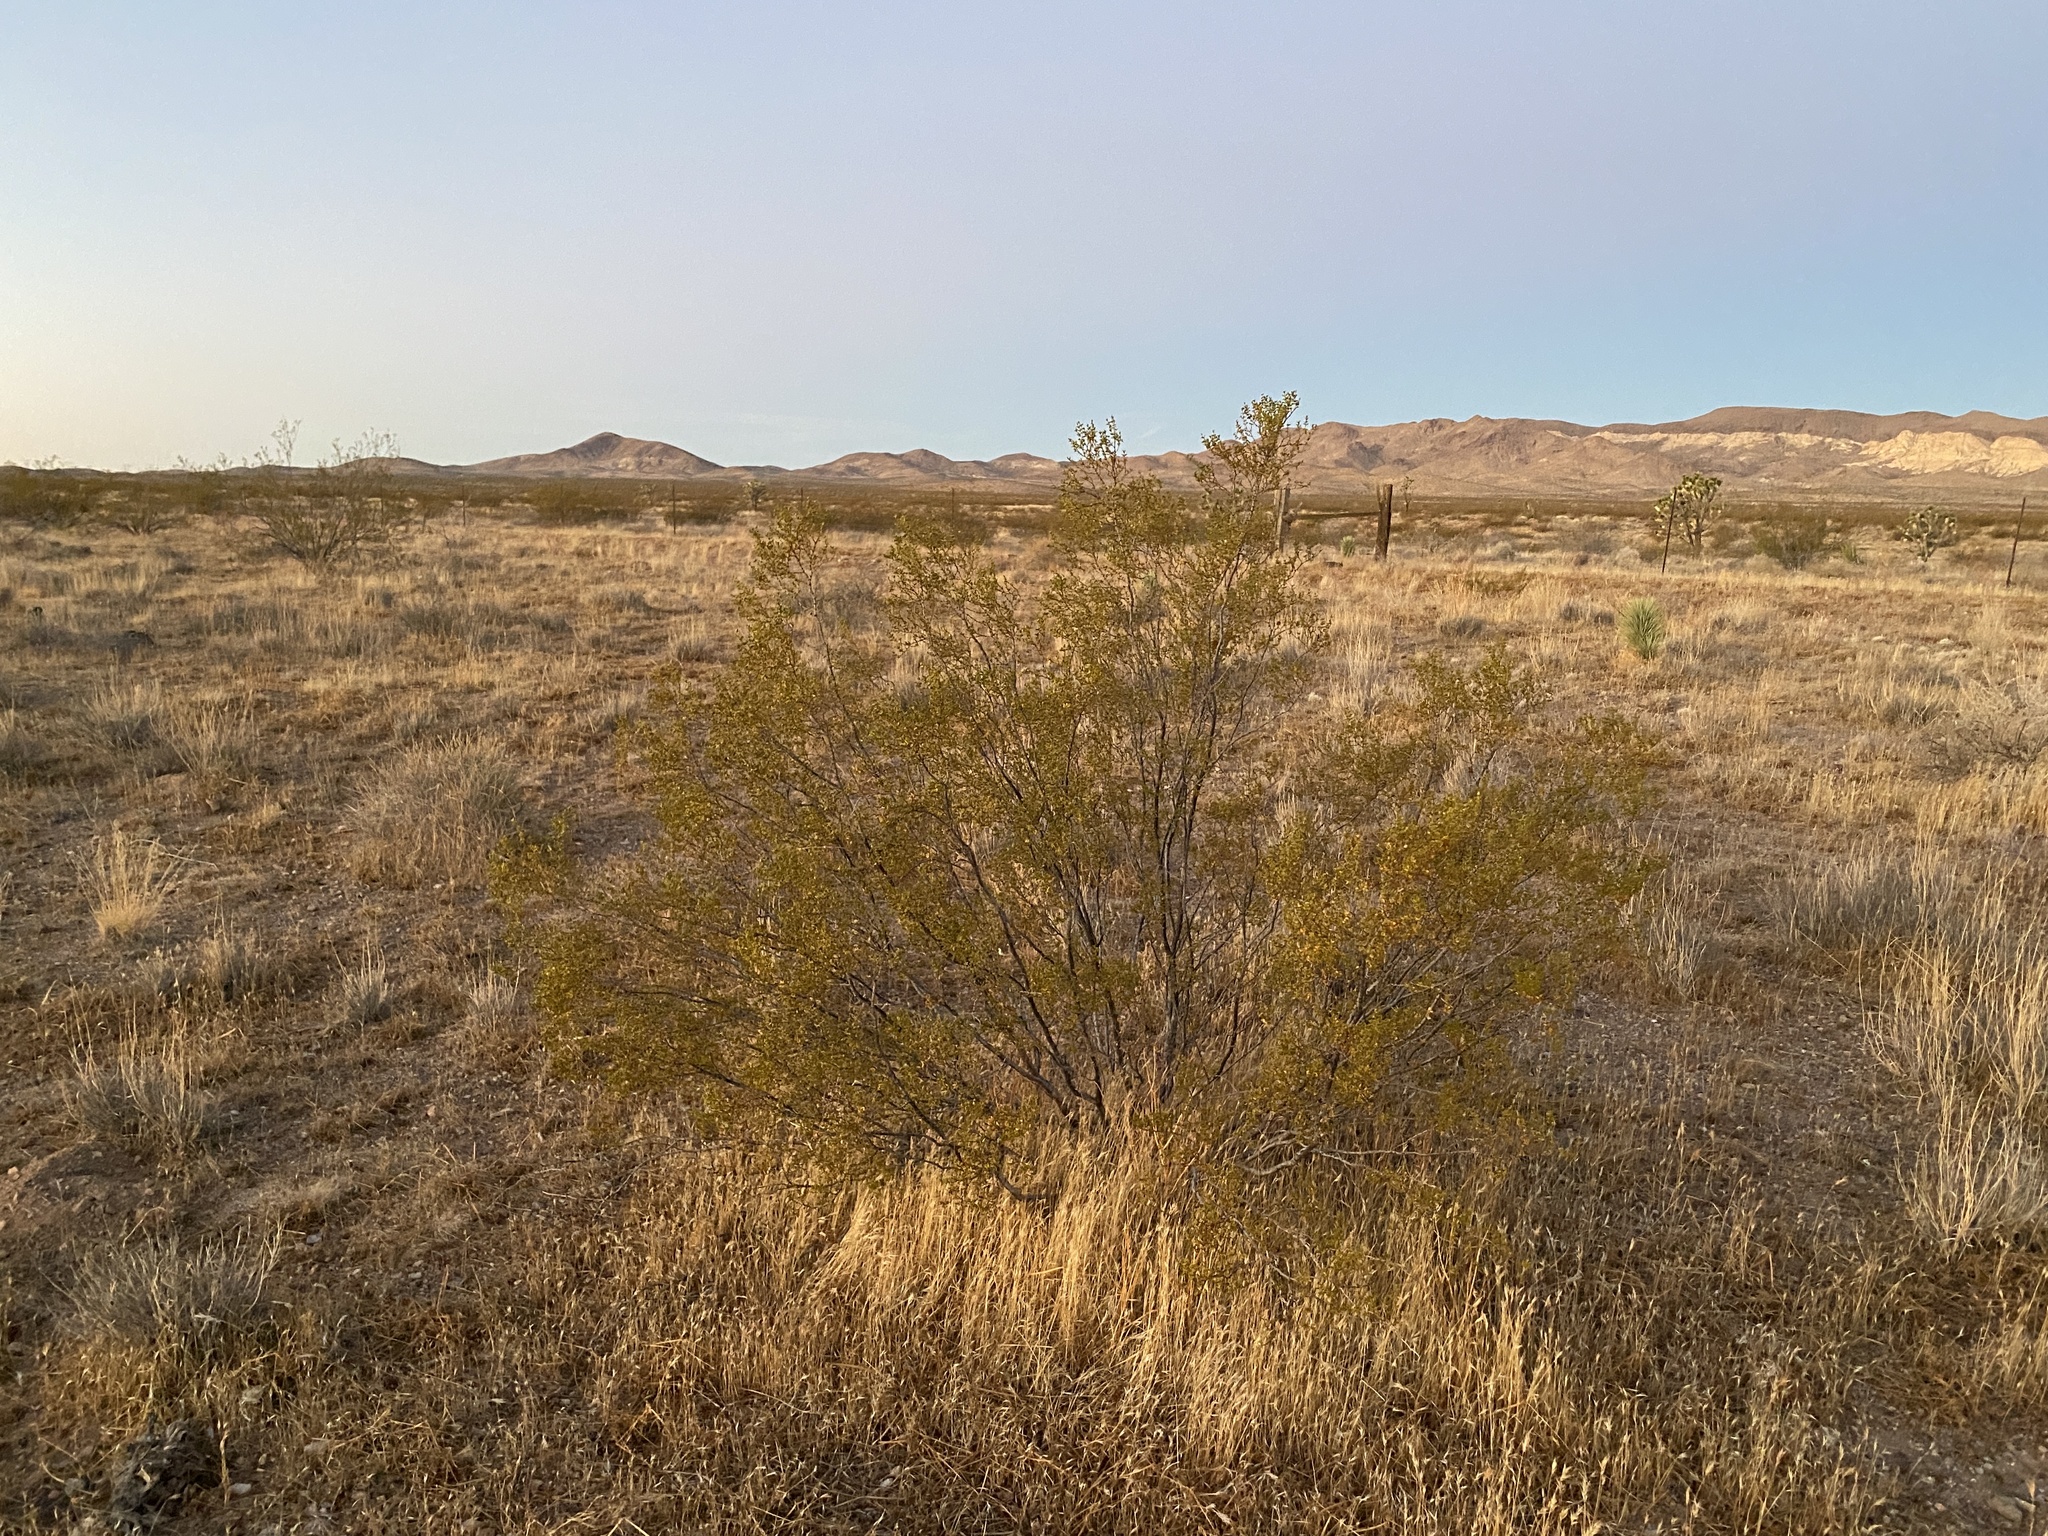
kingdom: Plantae
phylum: Tracheophyta
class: Magnoliopsida
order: Zygophyllales
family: Zygophyllaceae
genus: Larrea
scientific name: Larrea tridentata
